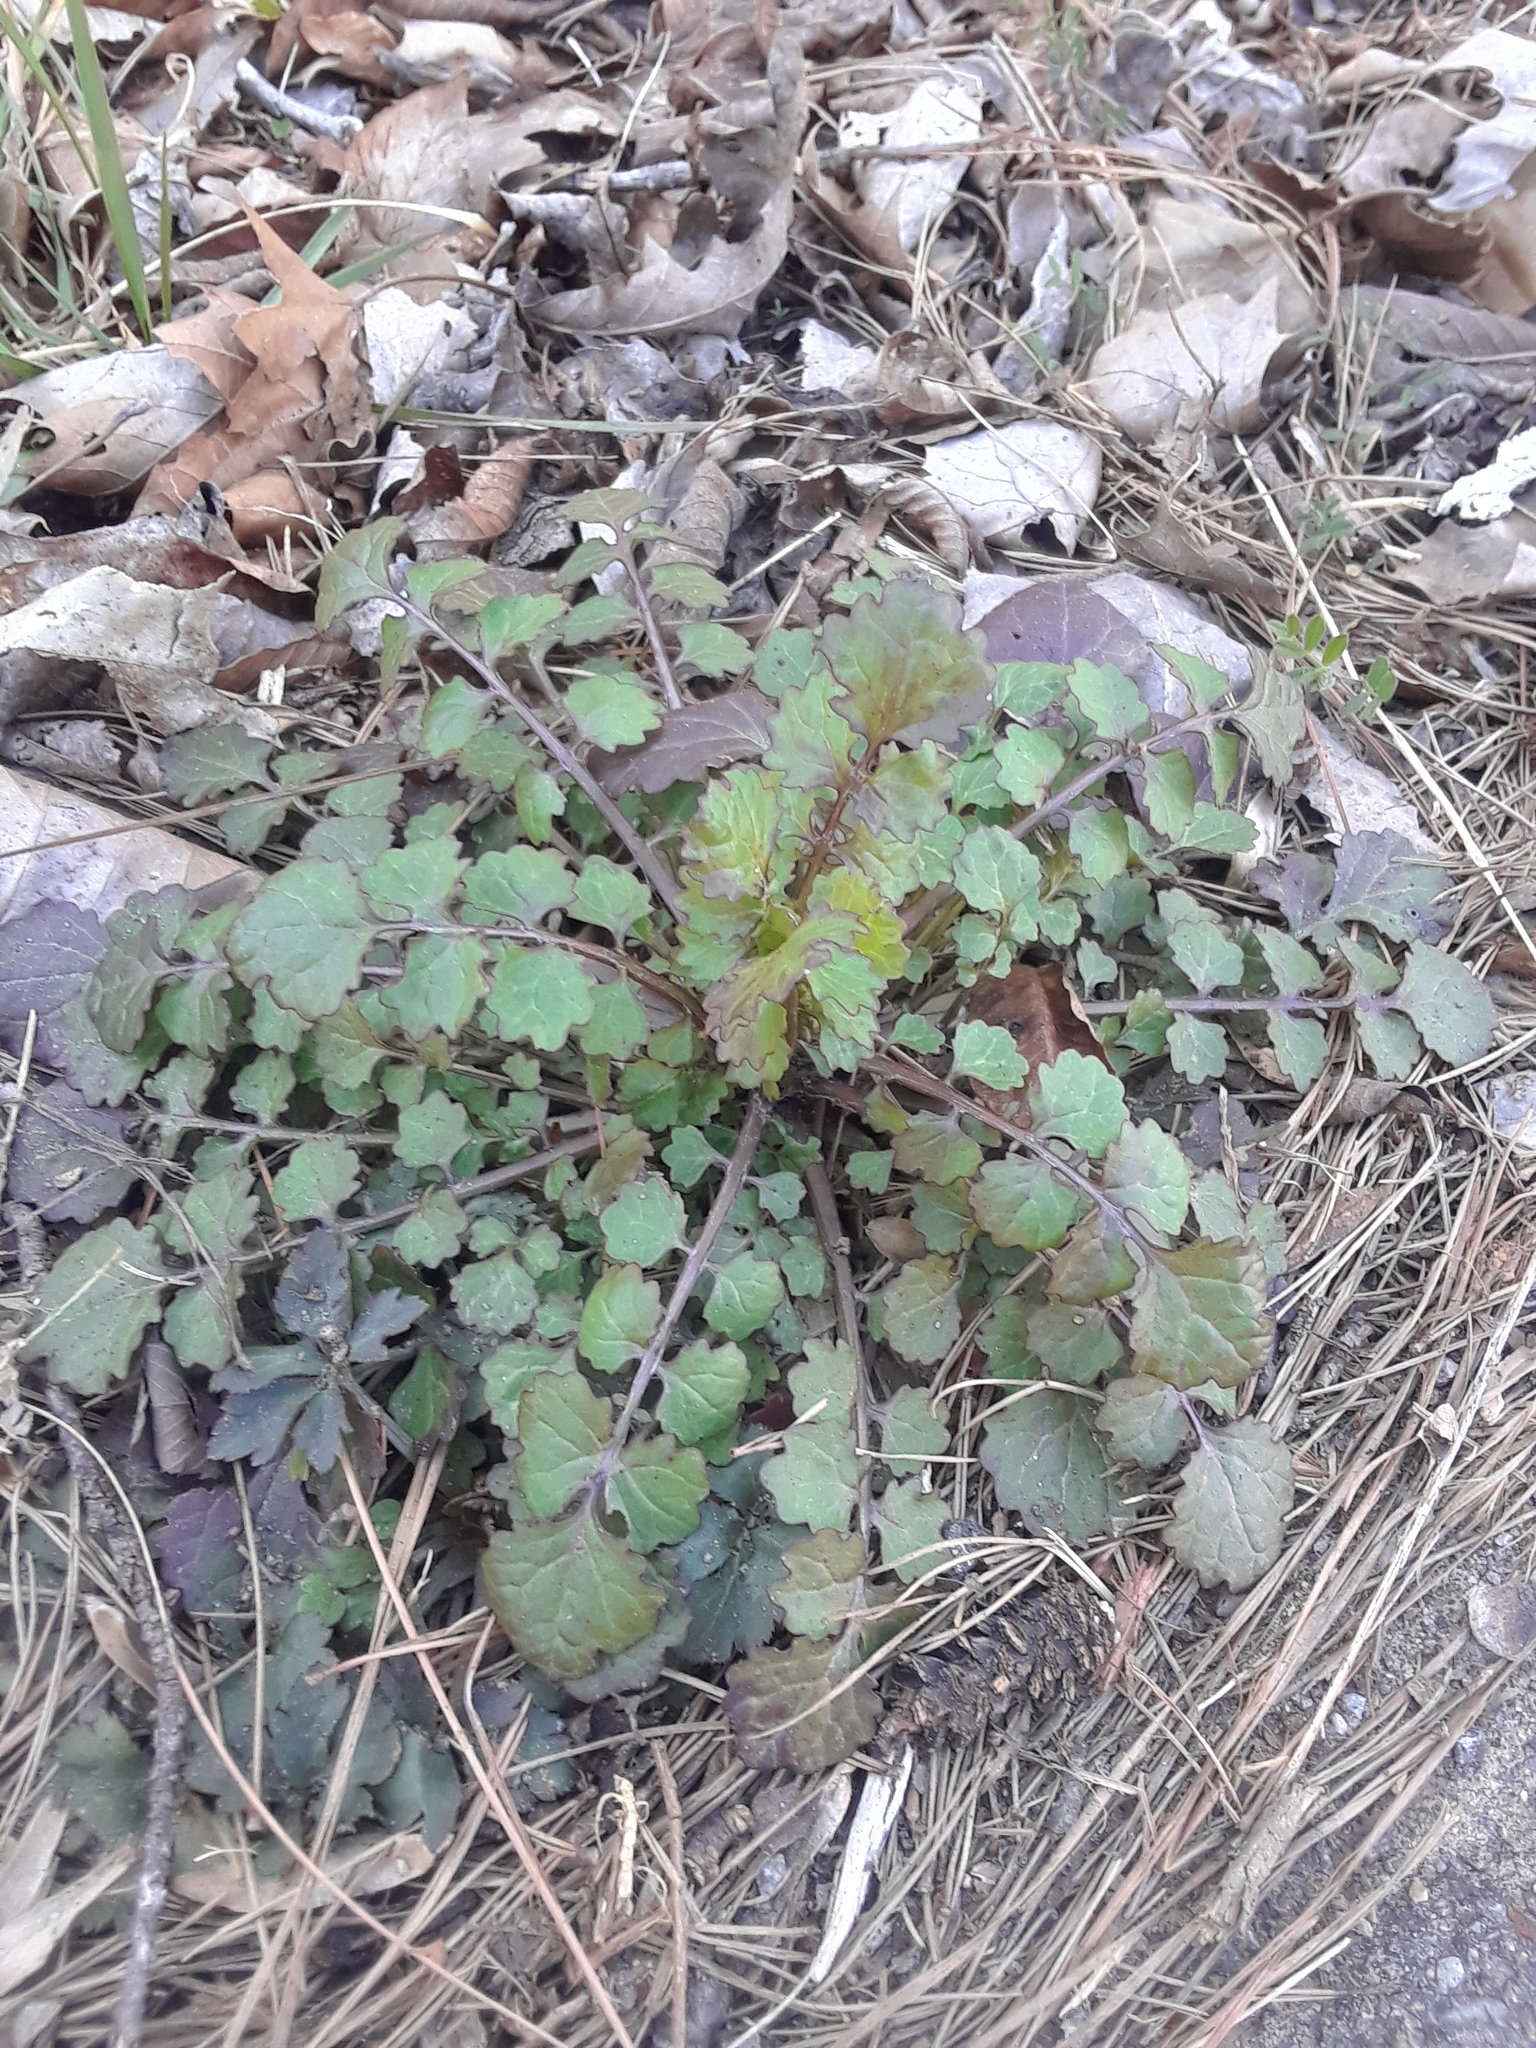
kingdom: Plantae
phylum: Tracheophyta
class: Magnoliopsida
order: Asterales
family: Asteraceae
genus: Packera
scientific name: Packera glabella
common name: Butterweed
